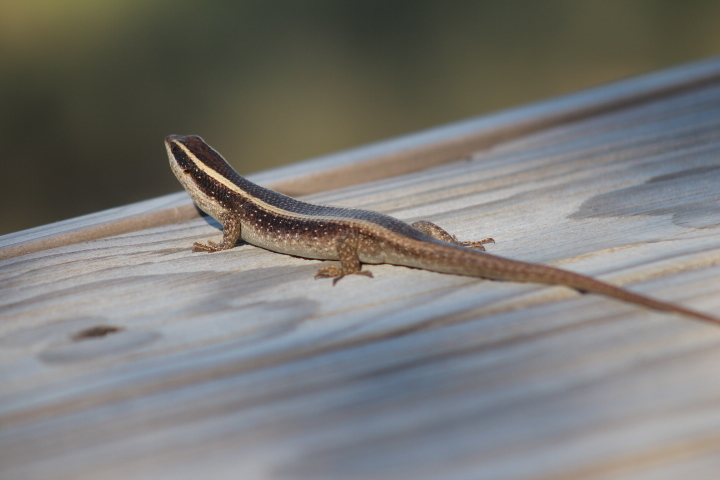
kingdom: Animalia
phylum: Chordata
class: Squamata
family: Scincidae
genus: Trachylepis
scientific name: Trachylepis striata
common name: African striped mabuya
